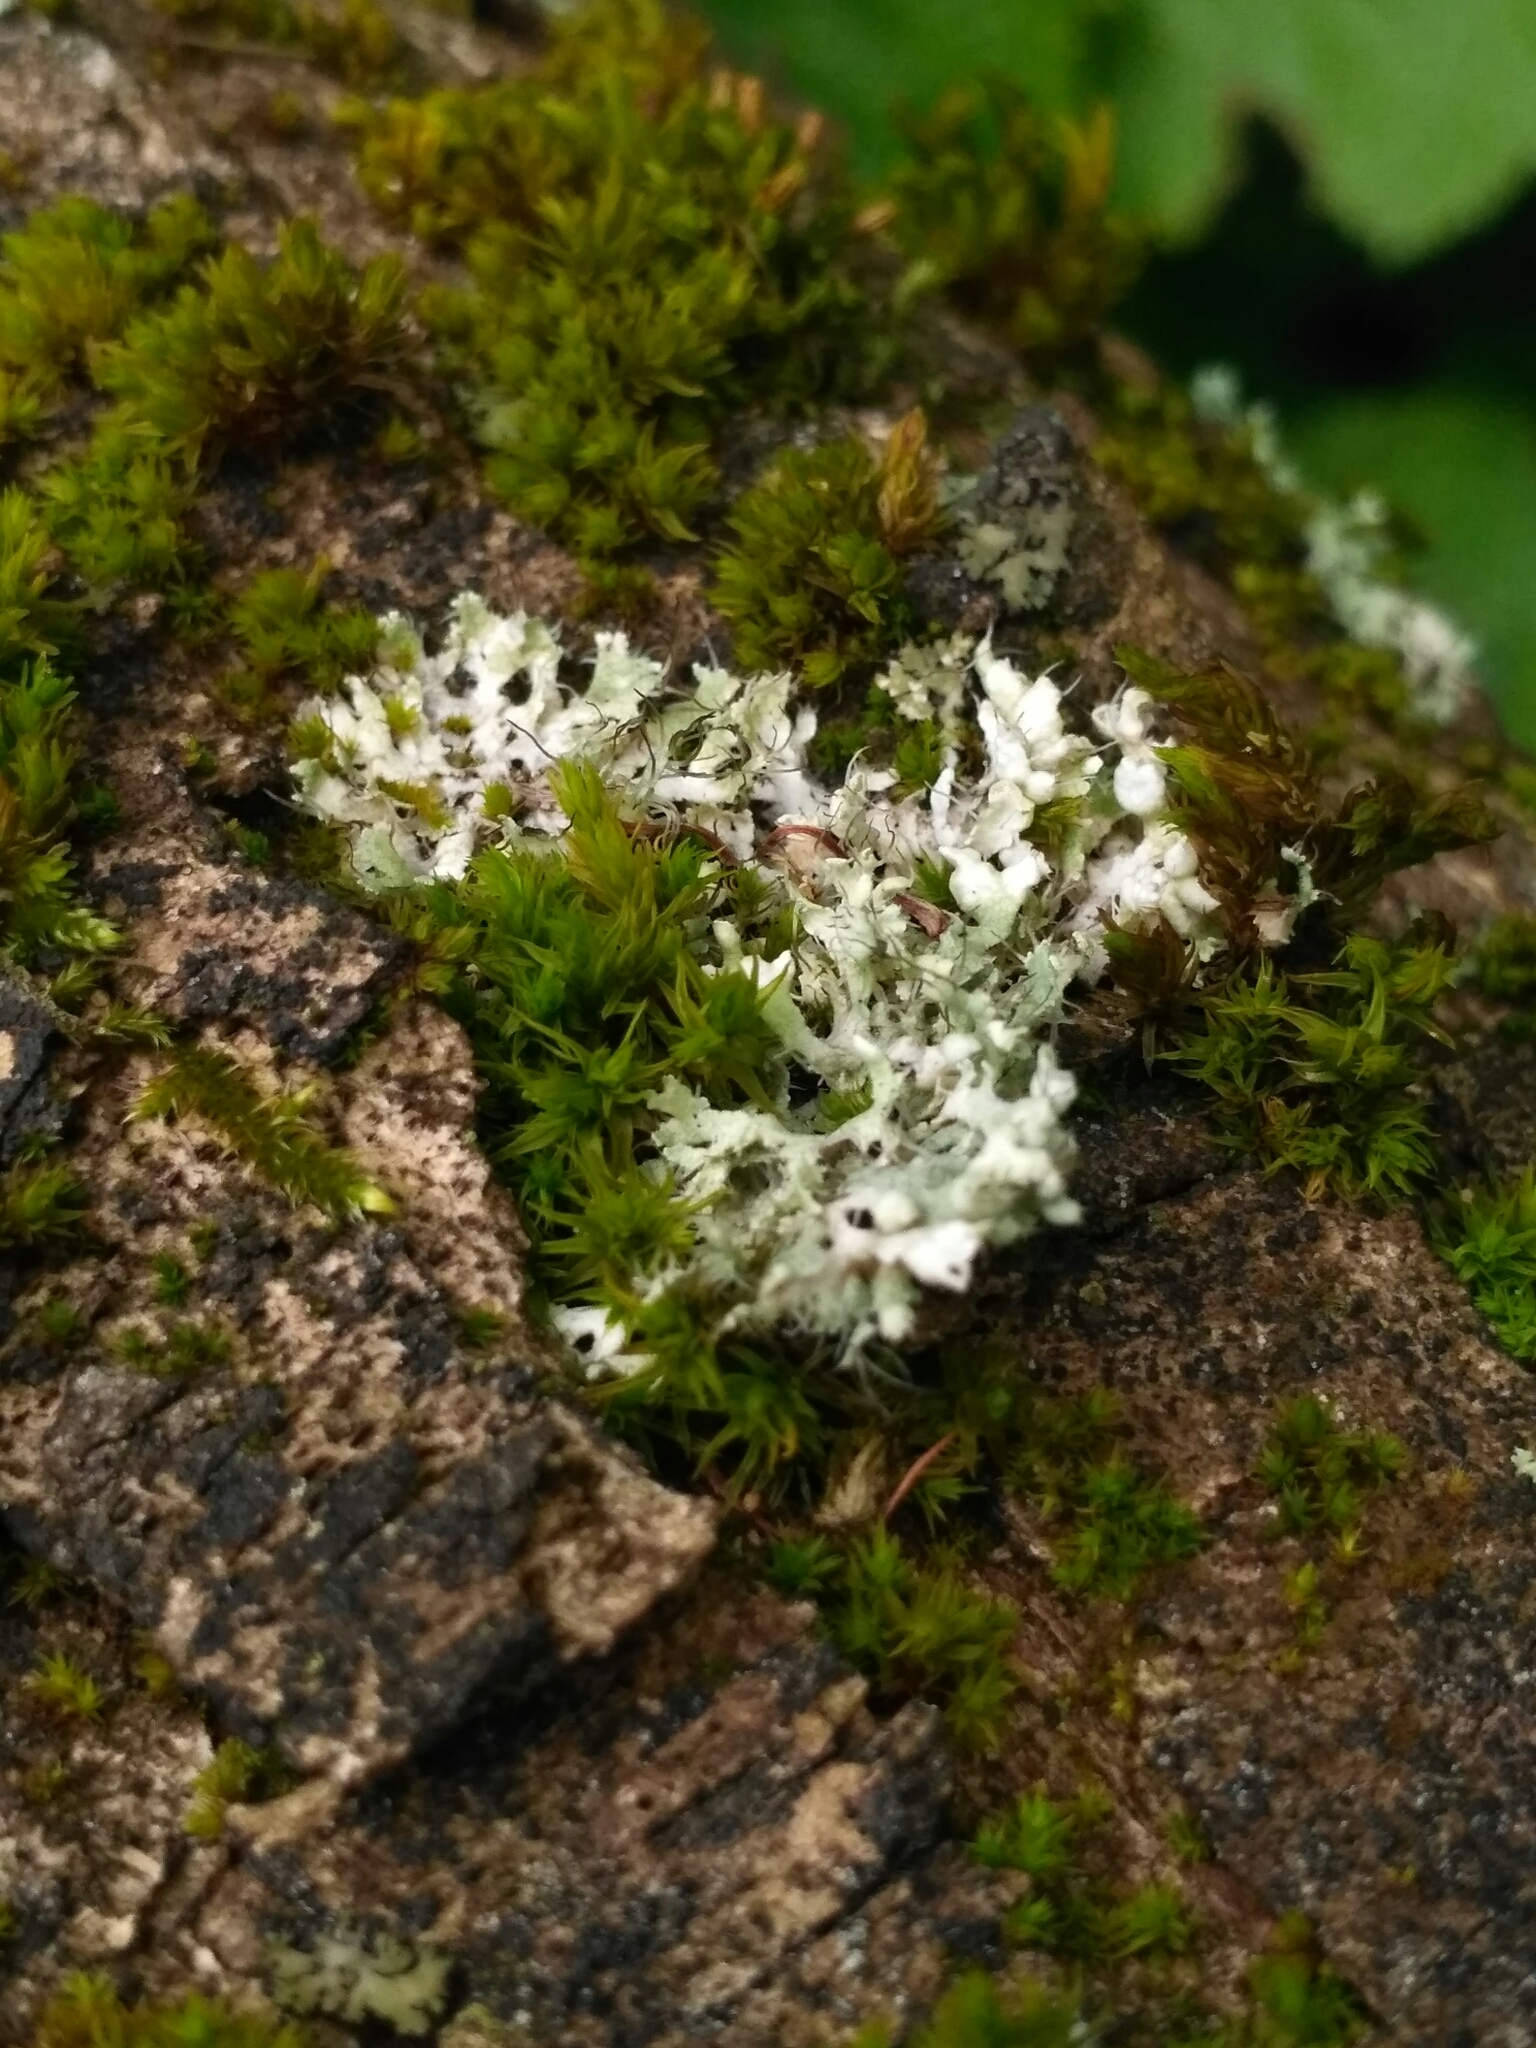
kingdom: Fungi
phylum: Ascomycota
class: Lecanoromycetes
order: Caliciales
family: Physciaceae
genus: Physcia
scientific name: Physcia adscendens
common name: Hooded rosette lichen
